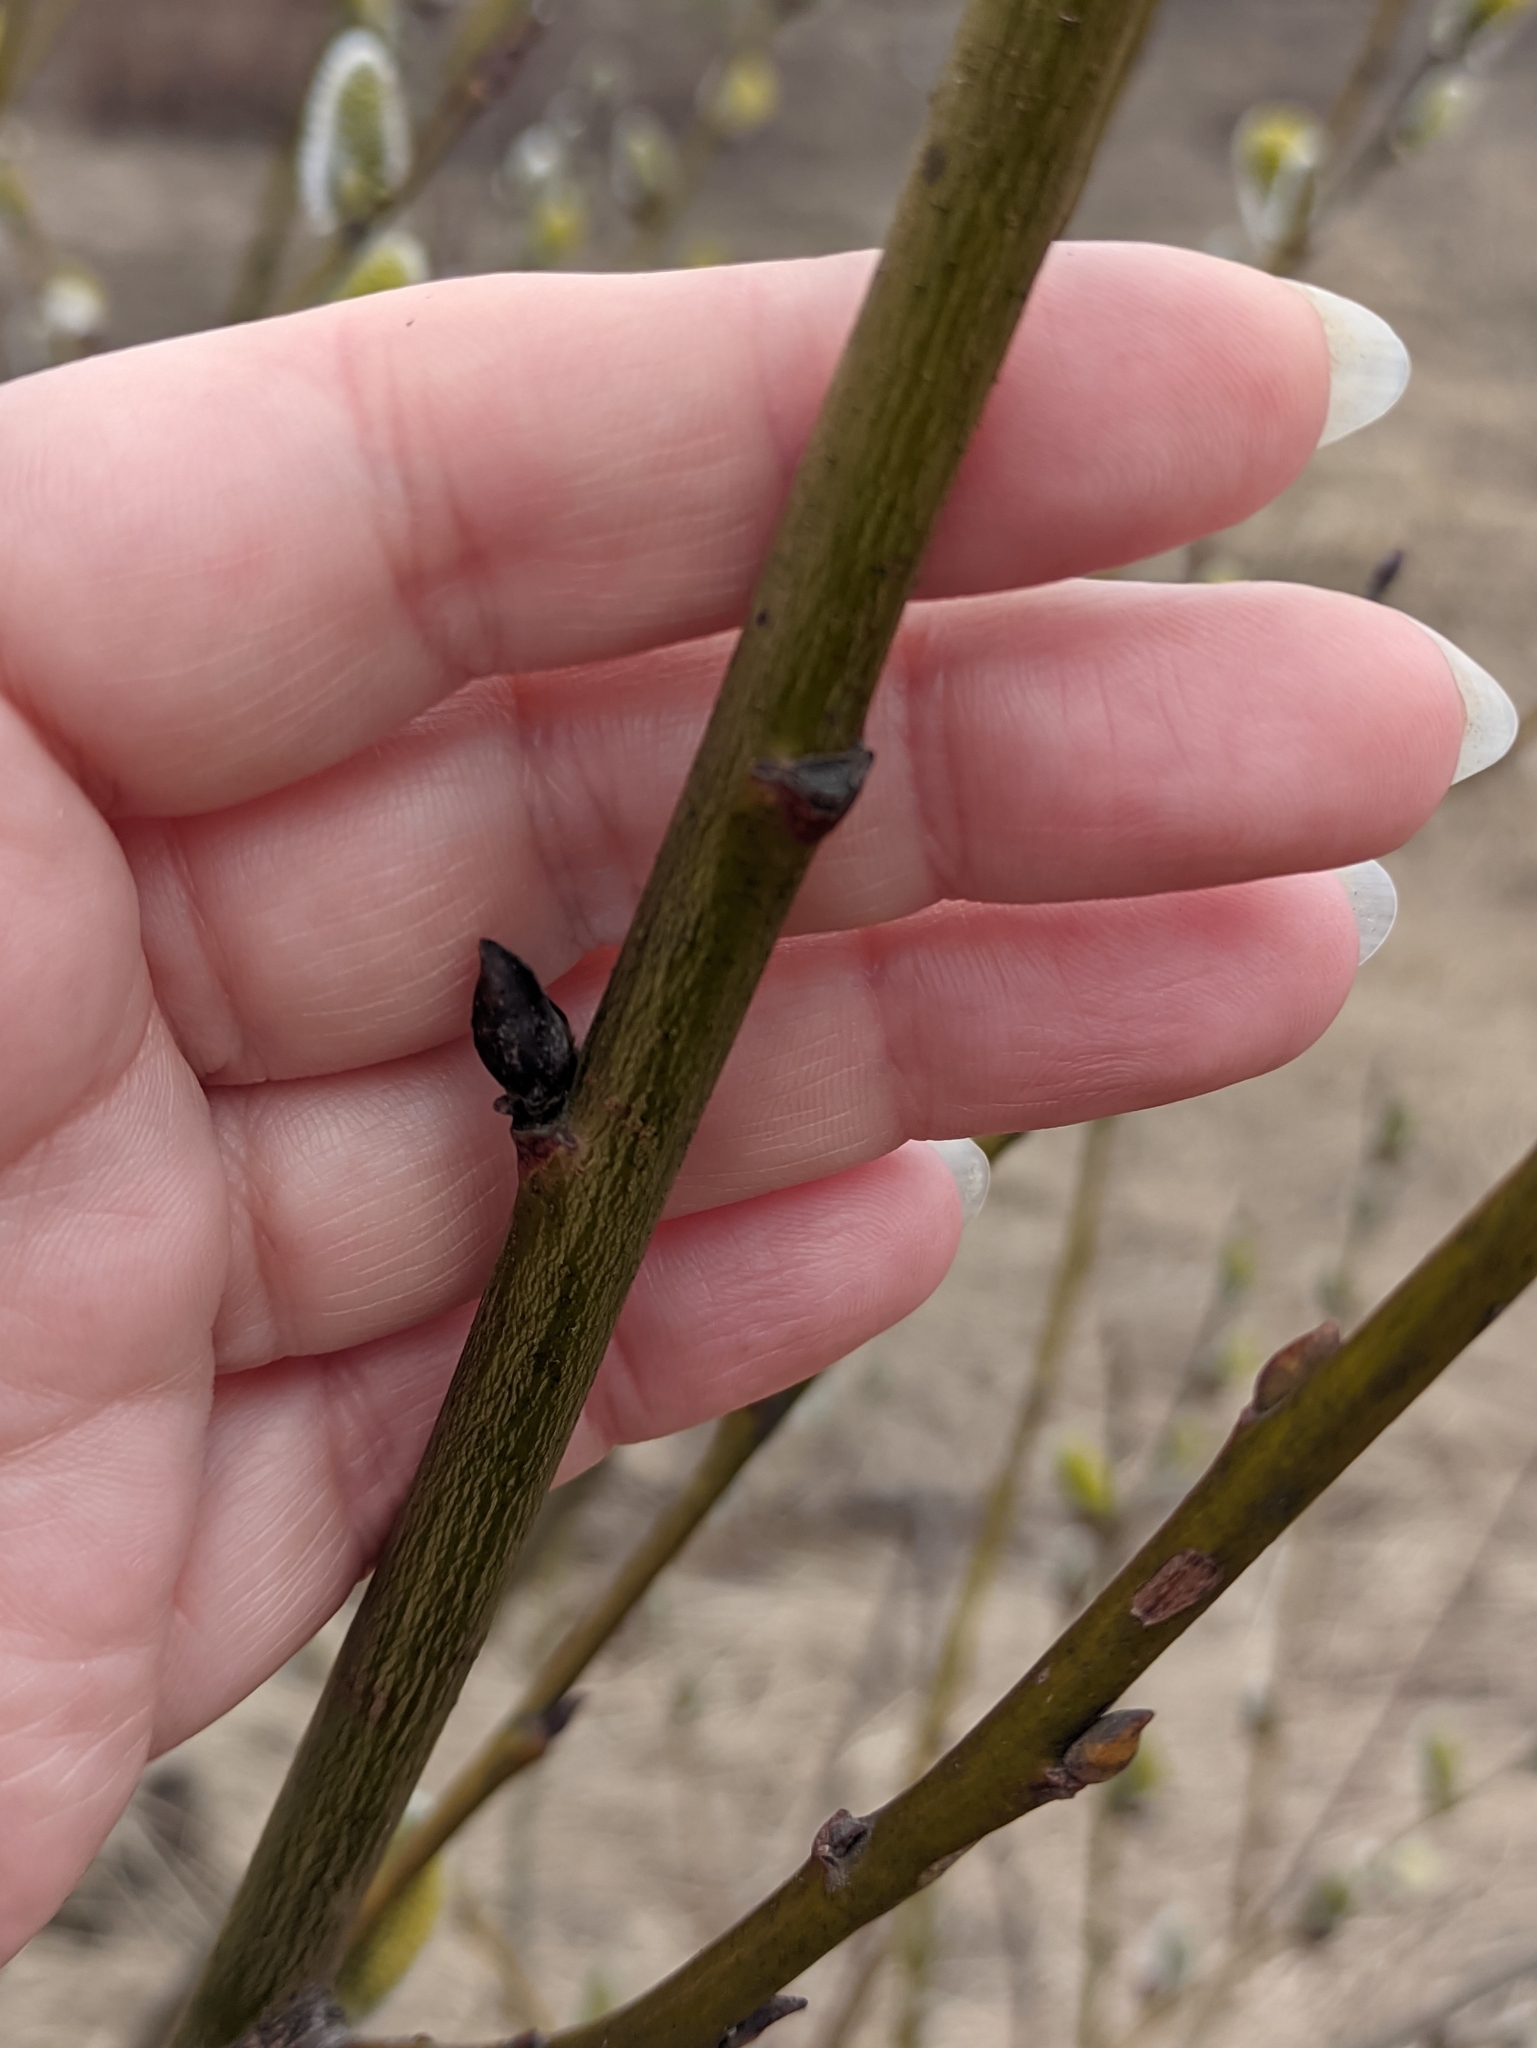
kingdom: Plantae
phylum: Tracheophyta
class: Magnoliopsida
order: Malpighiales
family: Salicaceae
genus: Salix
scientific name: Salix caprea
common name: Goat willow
